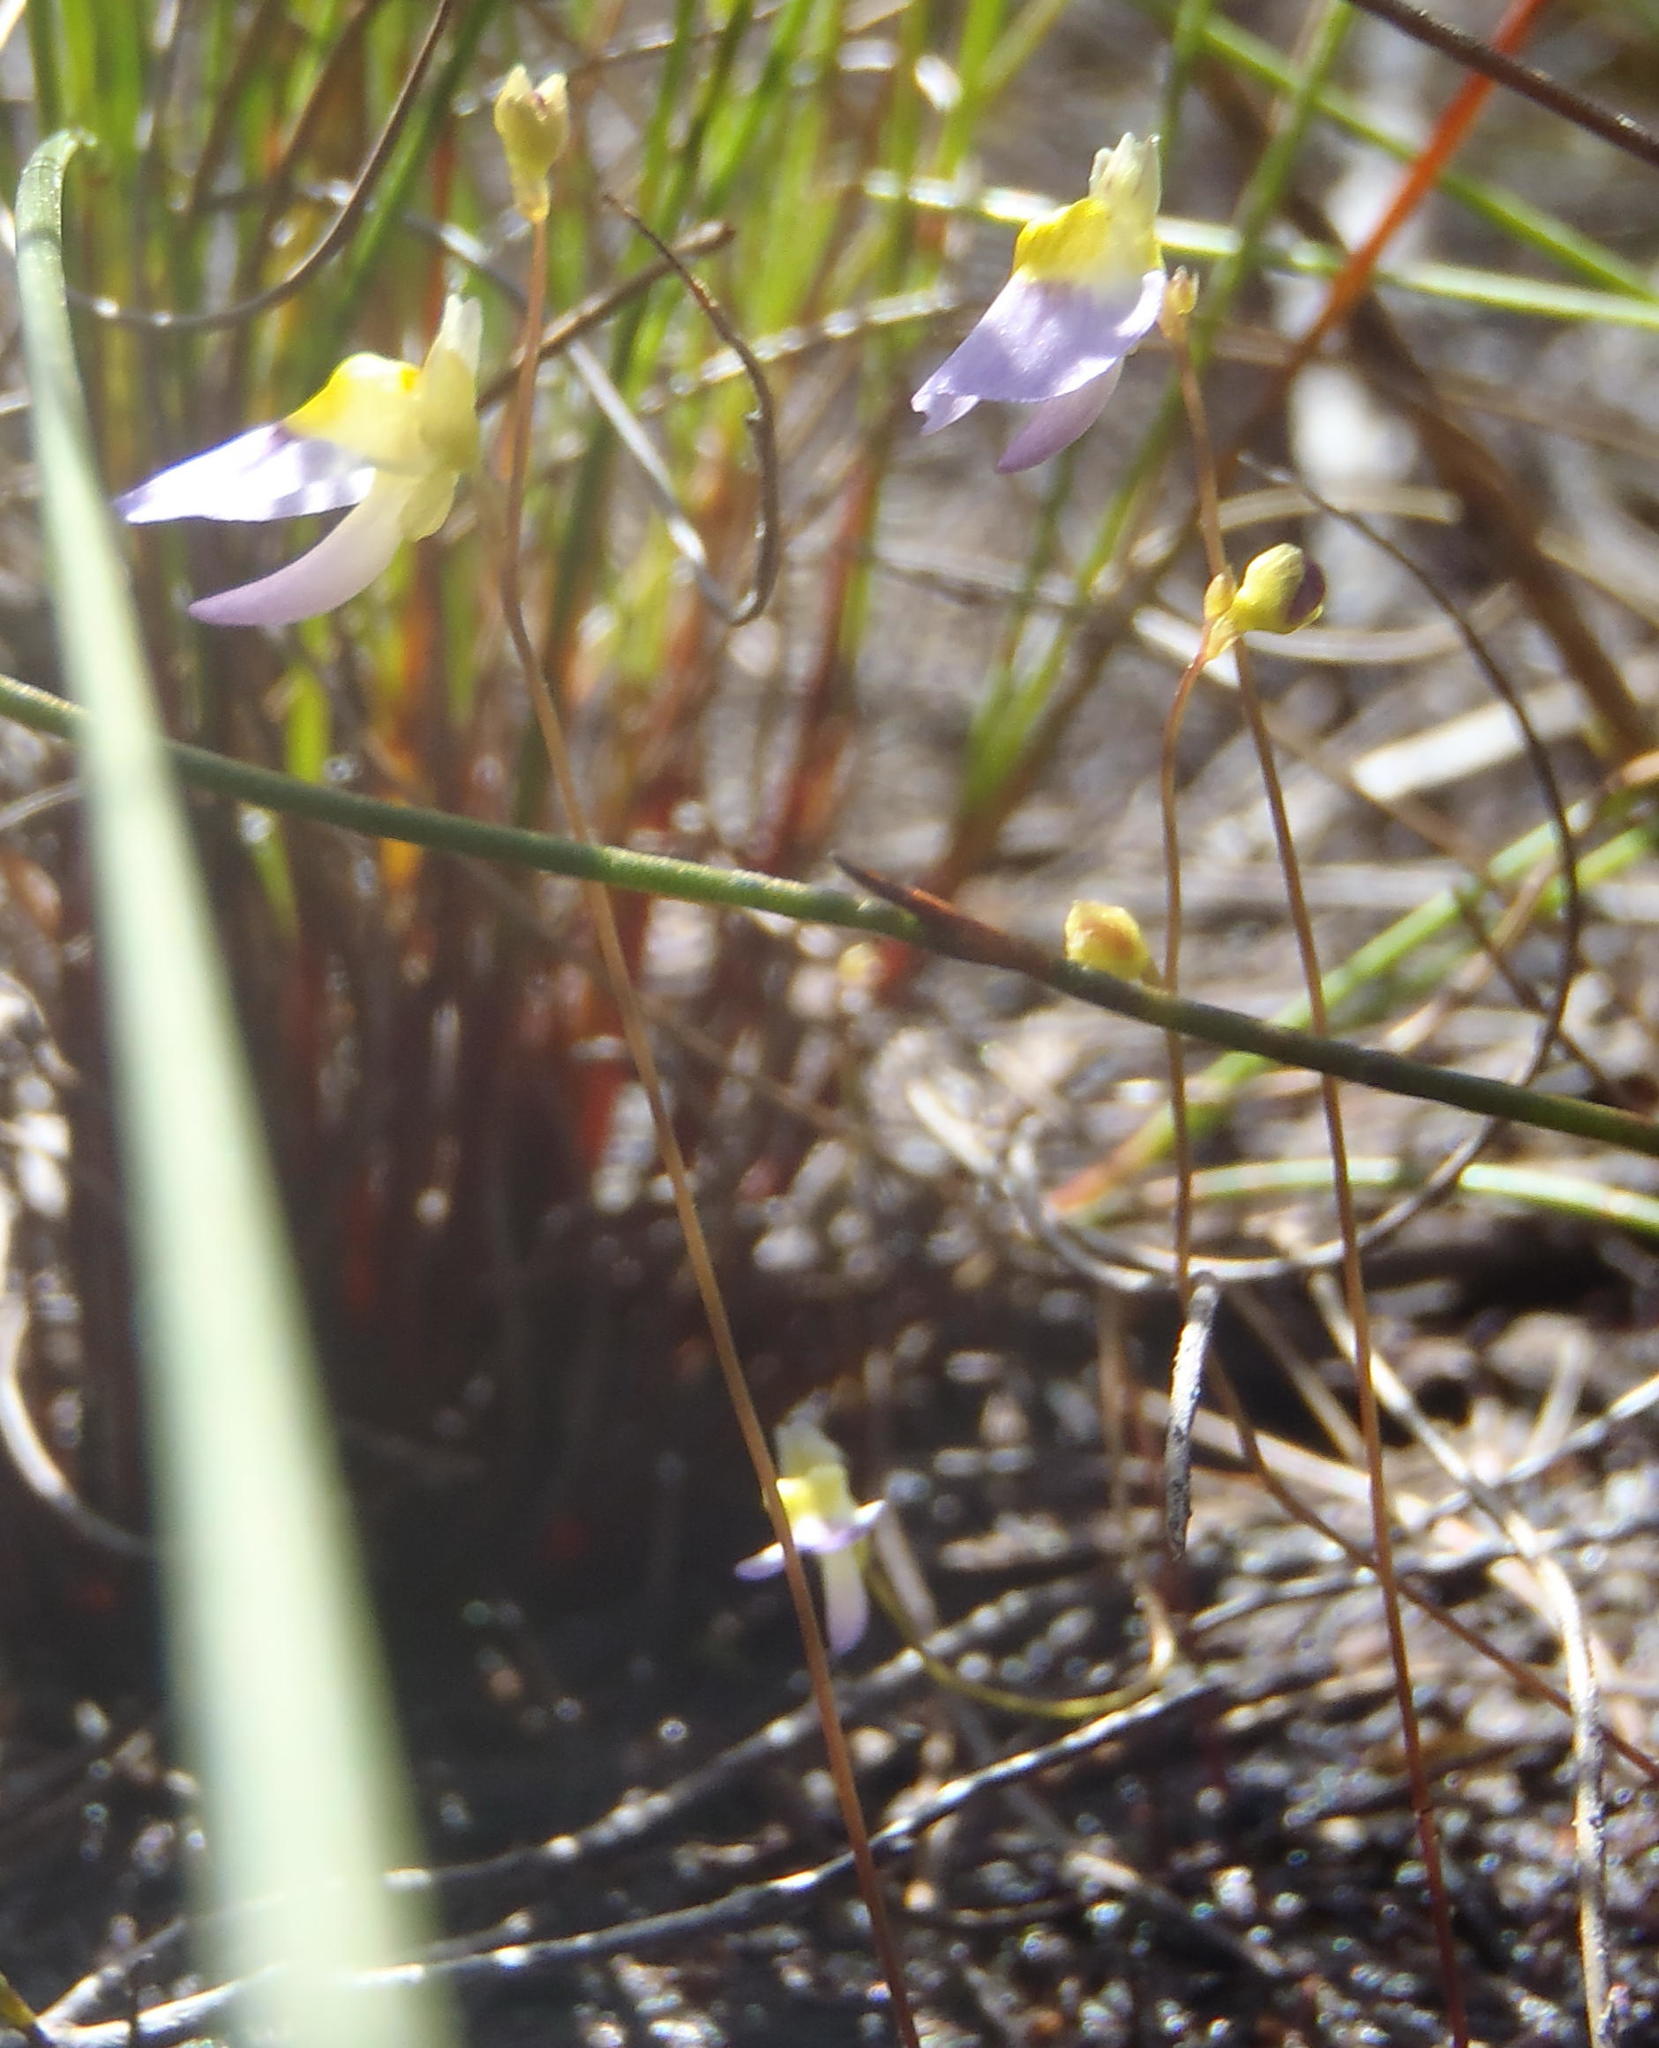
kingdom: Plantae
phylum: Tracheophyta
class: Magnoliopsida
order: Lamiales
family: Lentibulariaceae
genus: Utricularia
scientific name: Utricularia bisquamata
